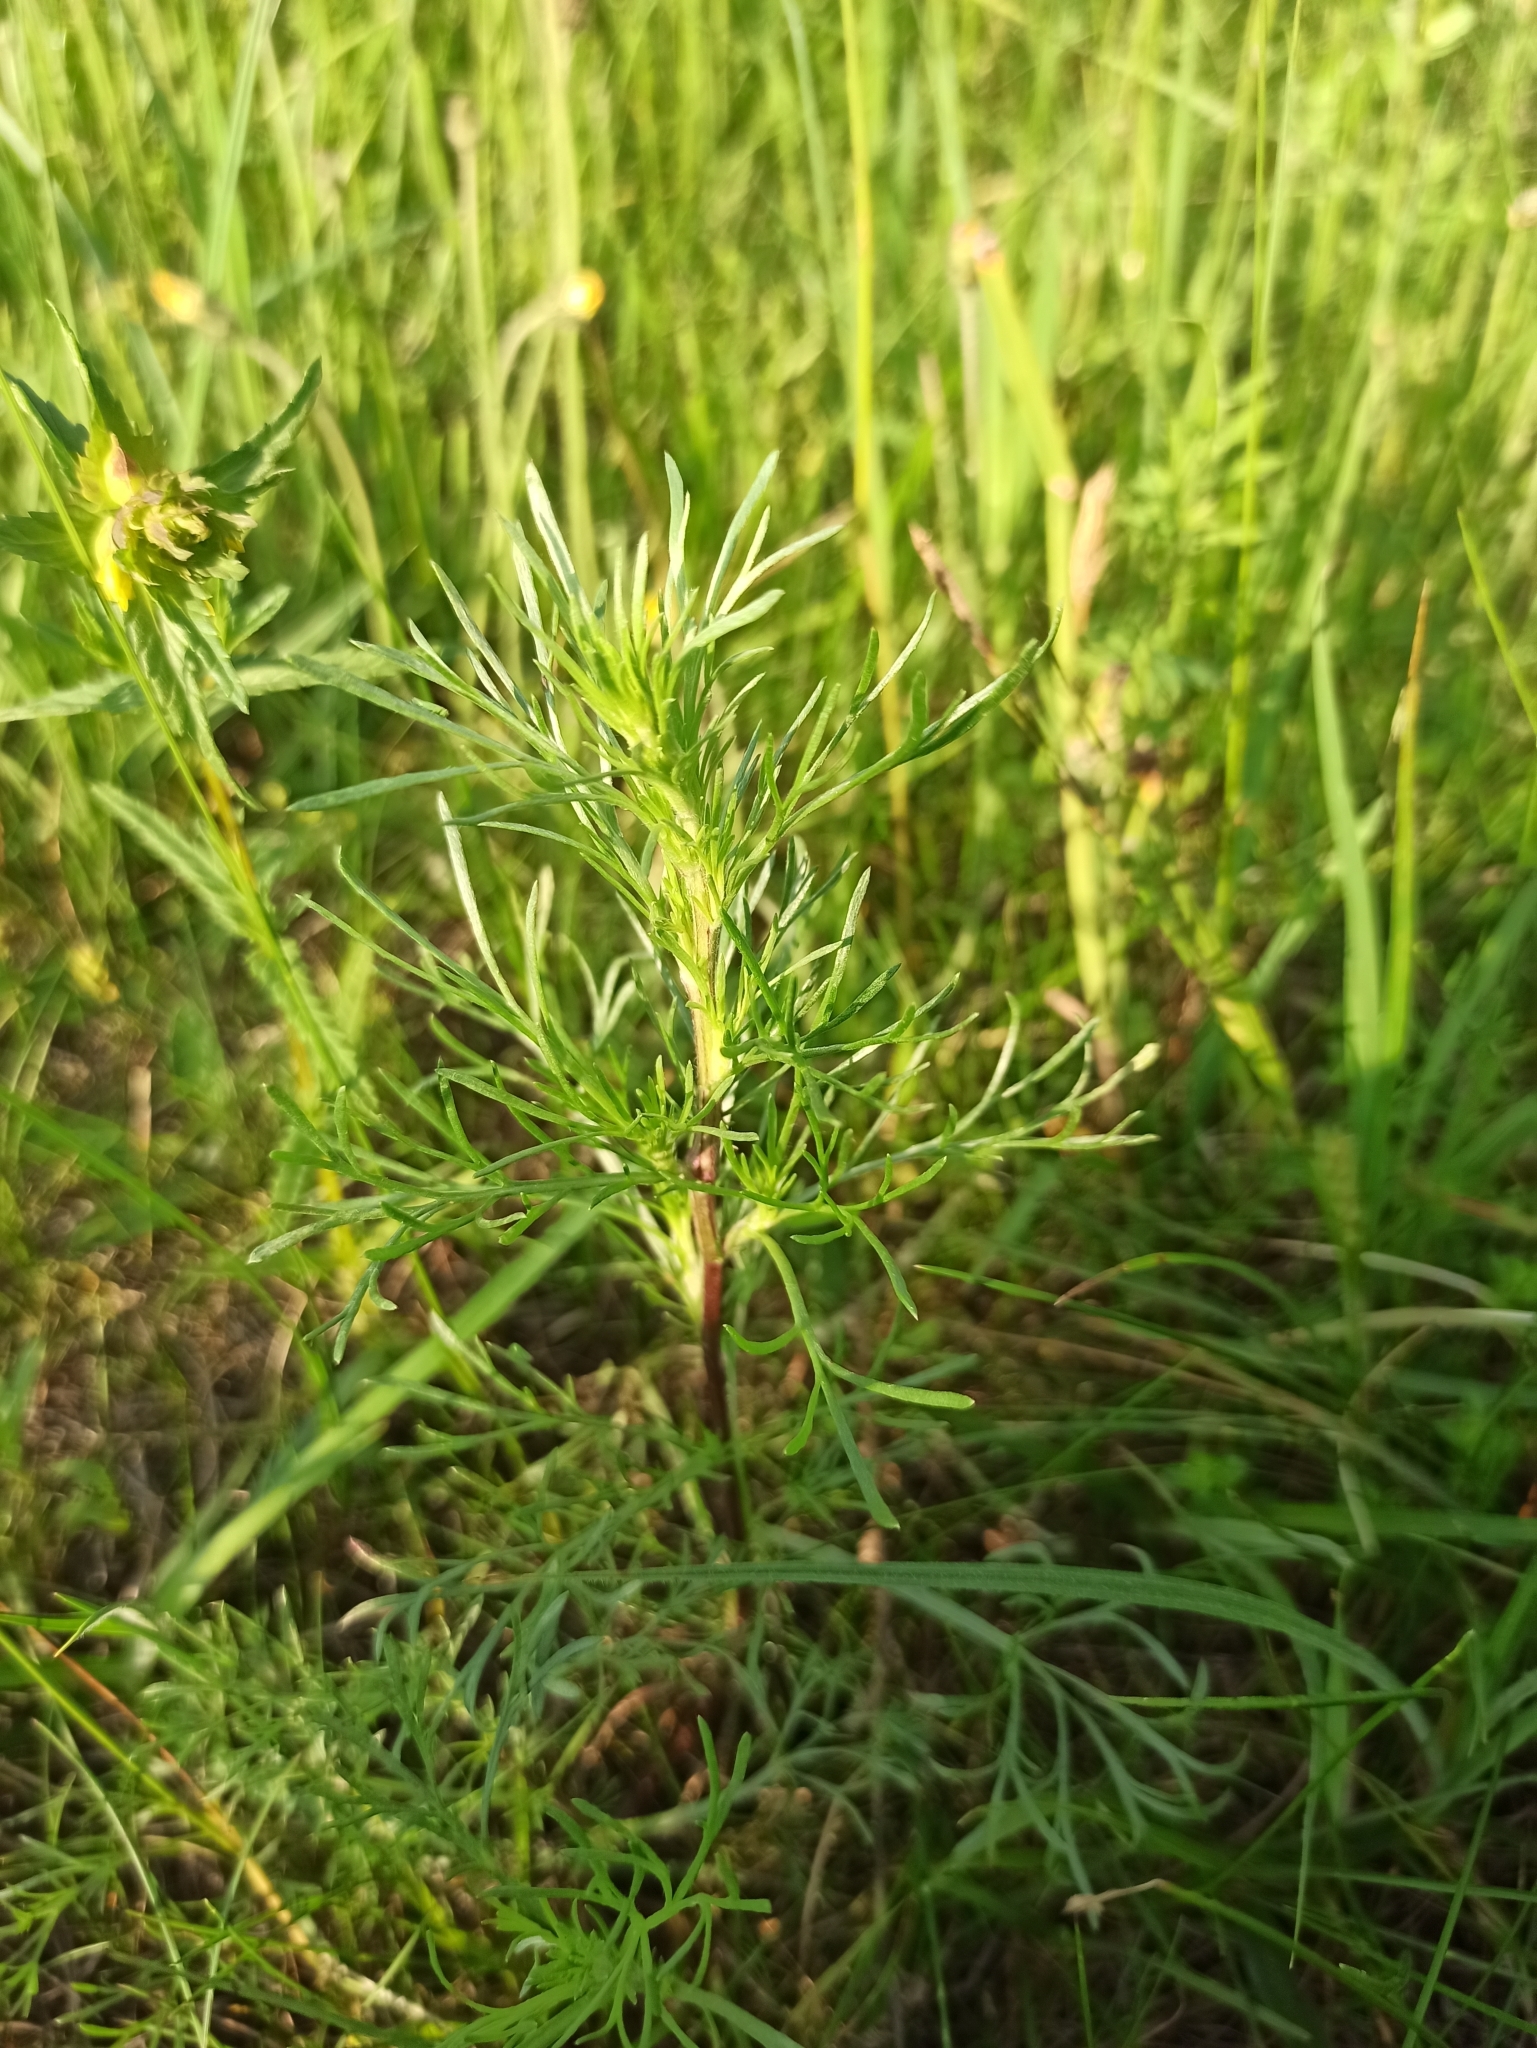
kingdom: Plantae
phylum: Tracheophyta
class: Magnoliopsida
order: Asterales
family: Asteraceae
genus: Artemisia
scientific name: Artemisia campestris
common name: Field wormwood
